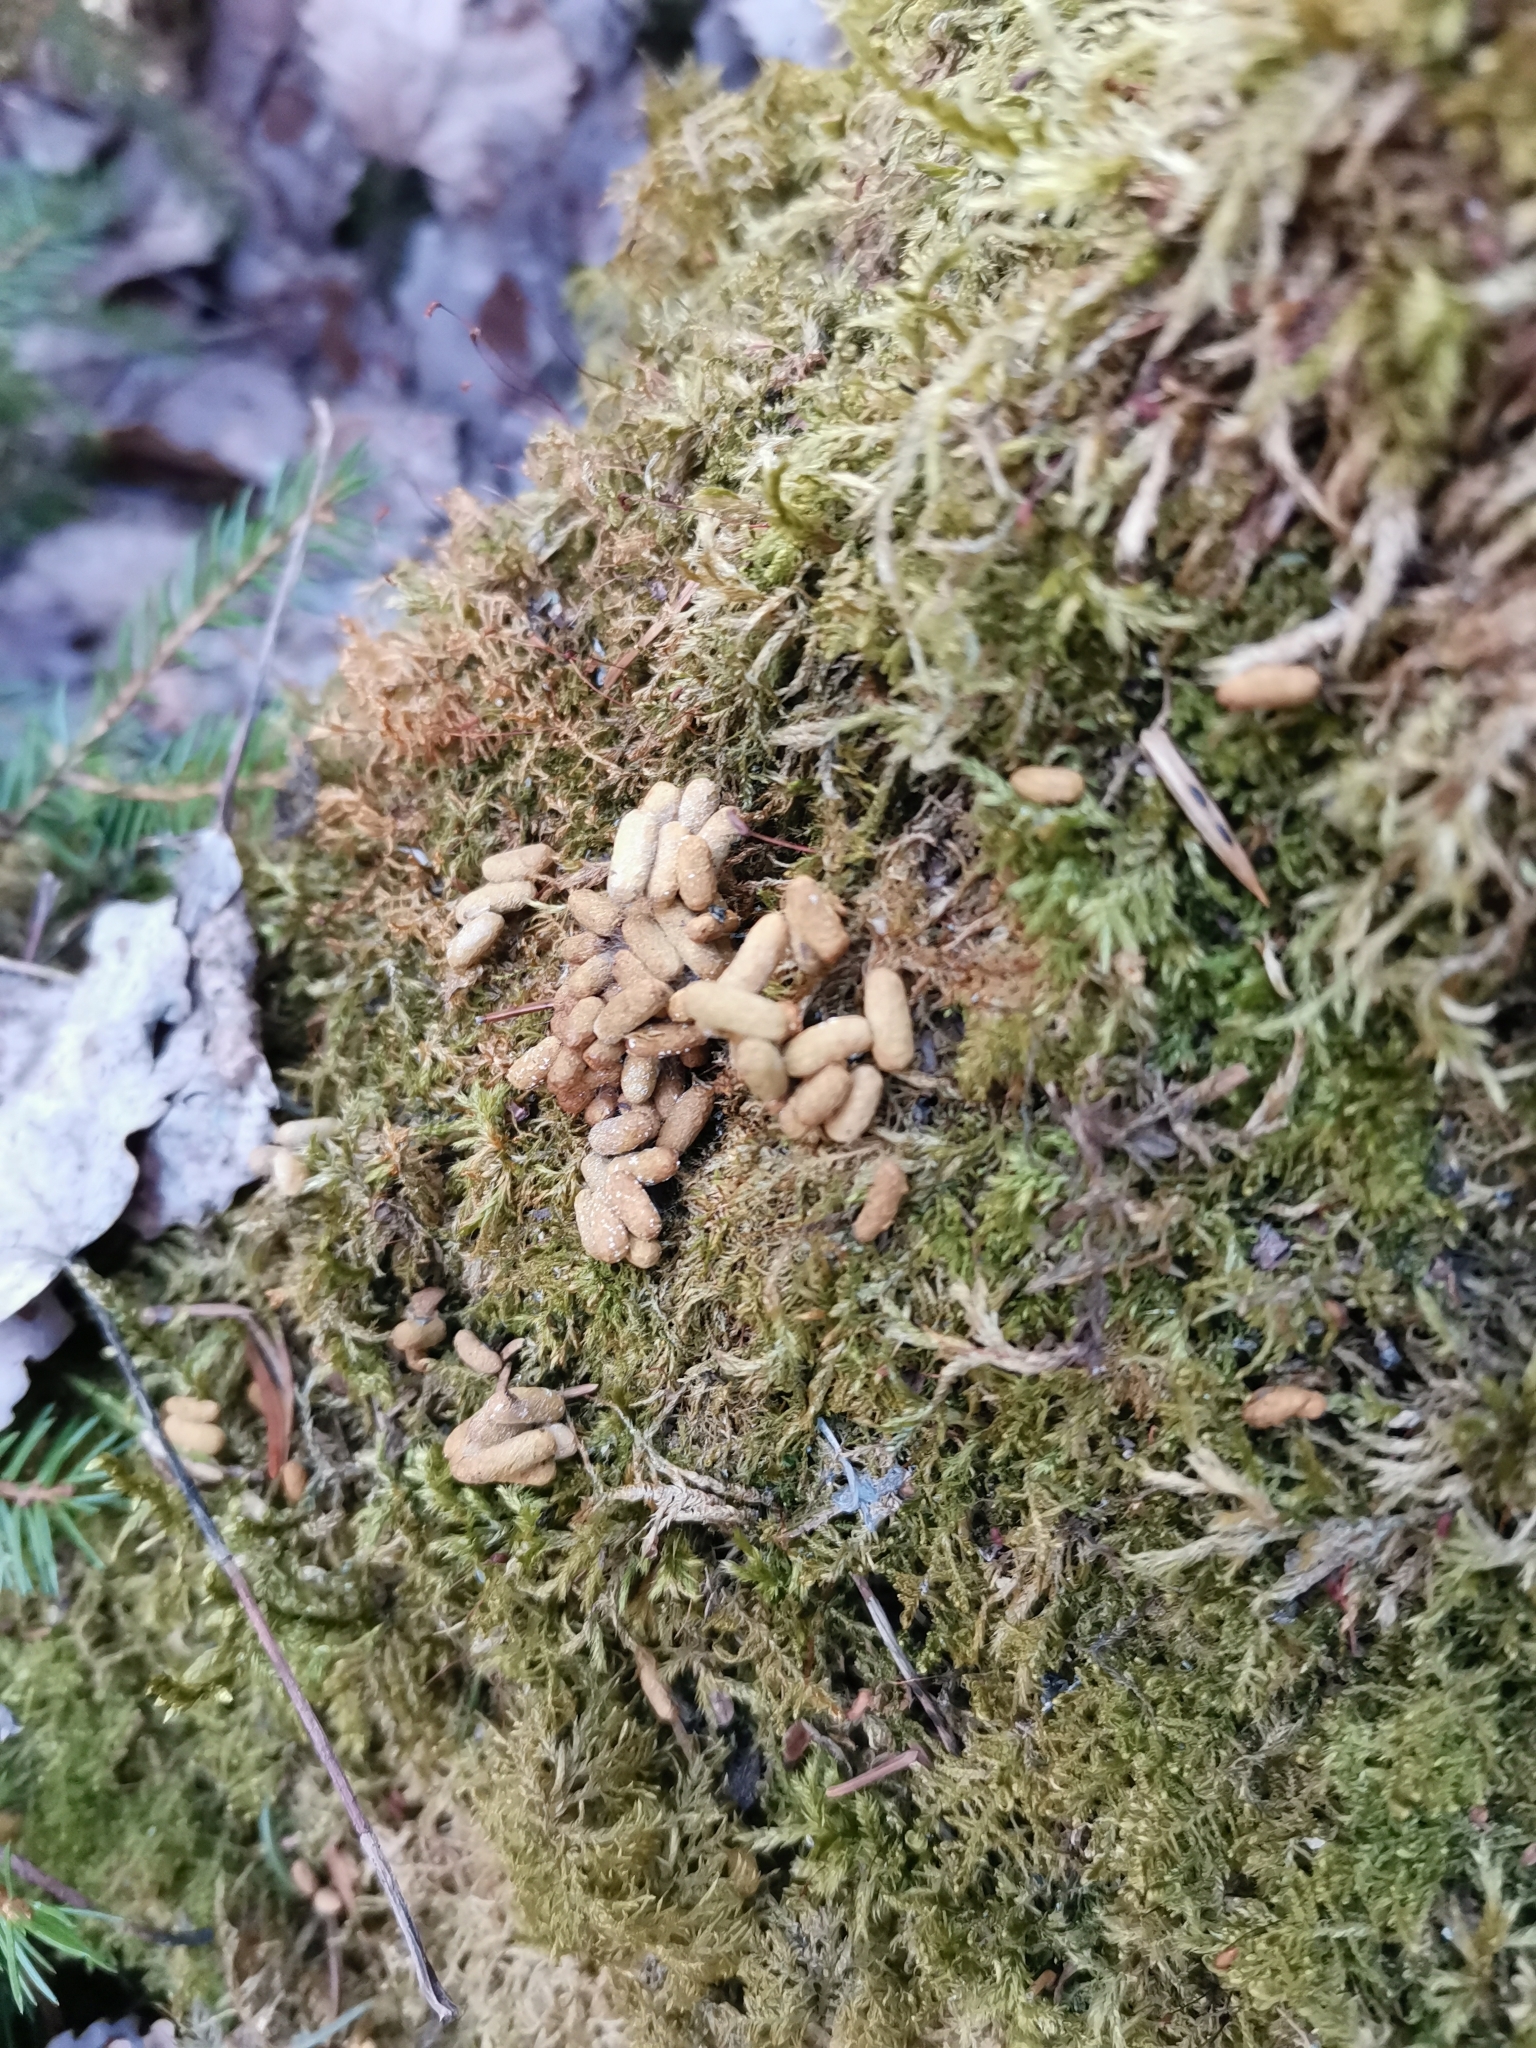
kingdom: Animalia
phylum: Chordata
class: Mammalia
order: Rodentia
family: Sciuridae
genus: Pteromys
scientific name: Pteromys volans
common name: Siberian flying squirrel
